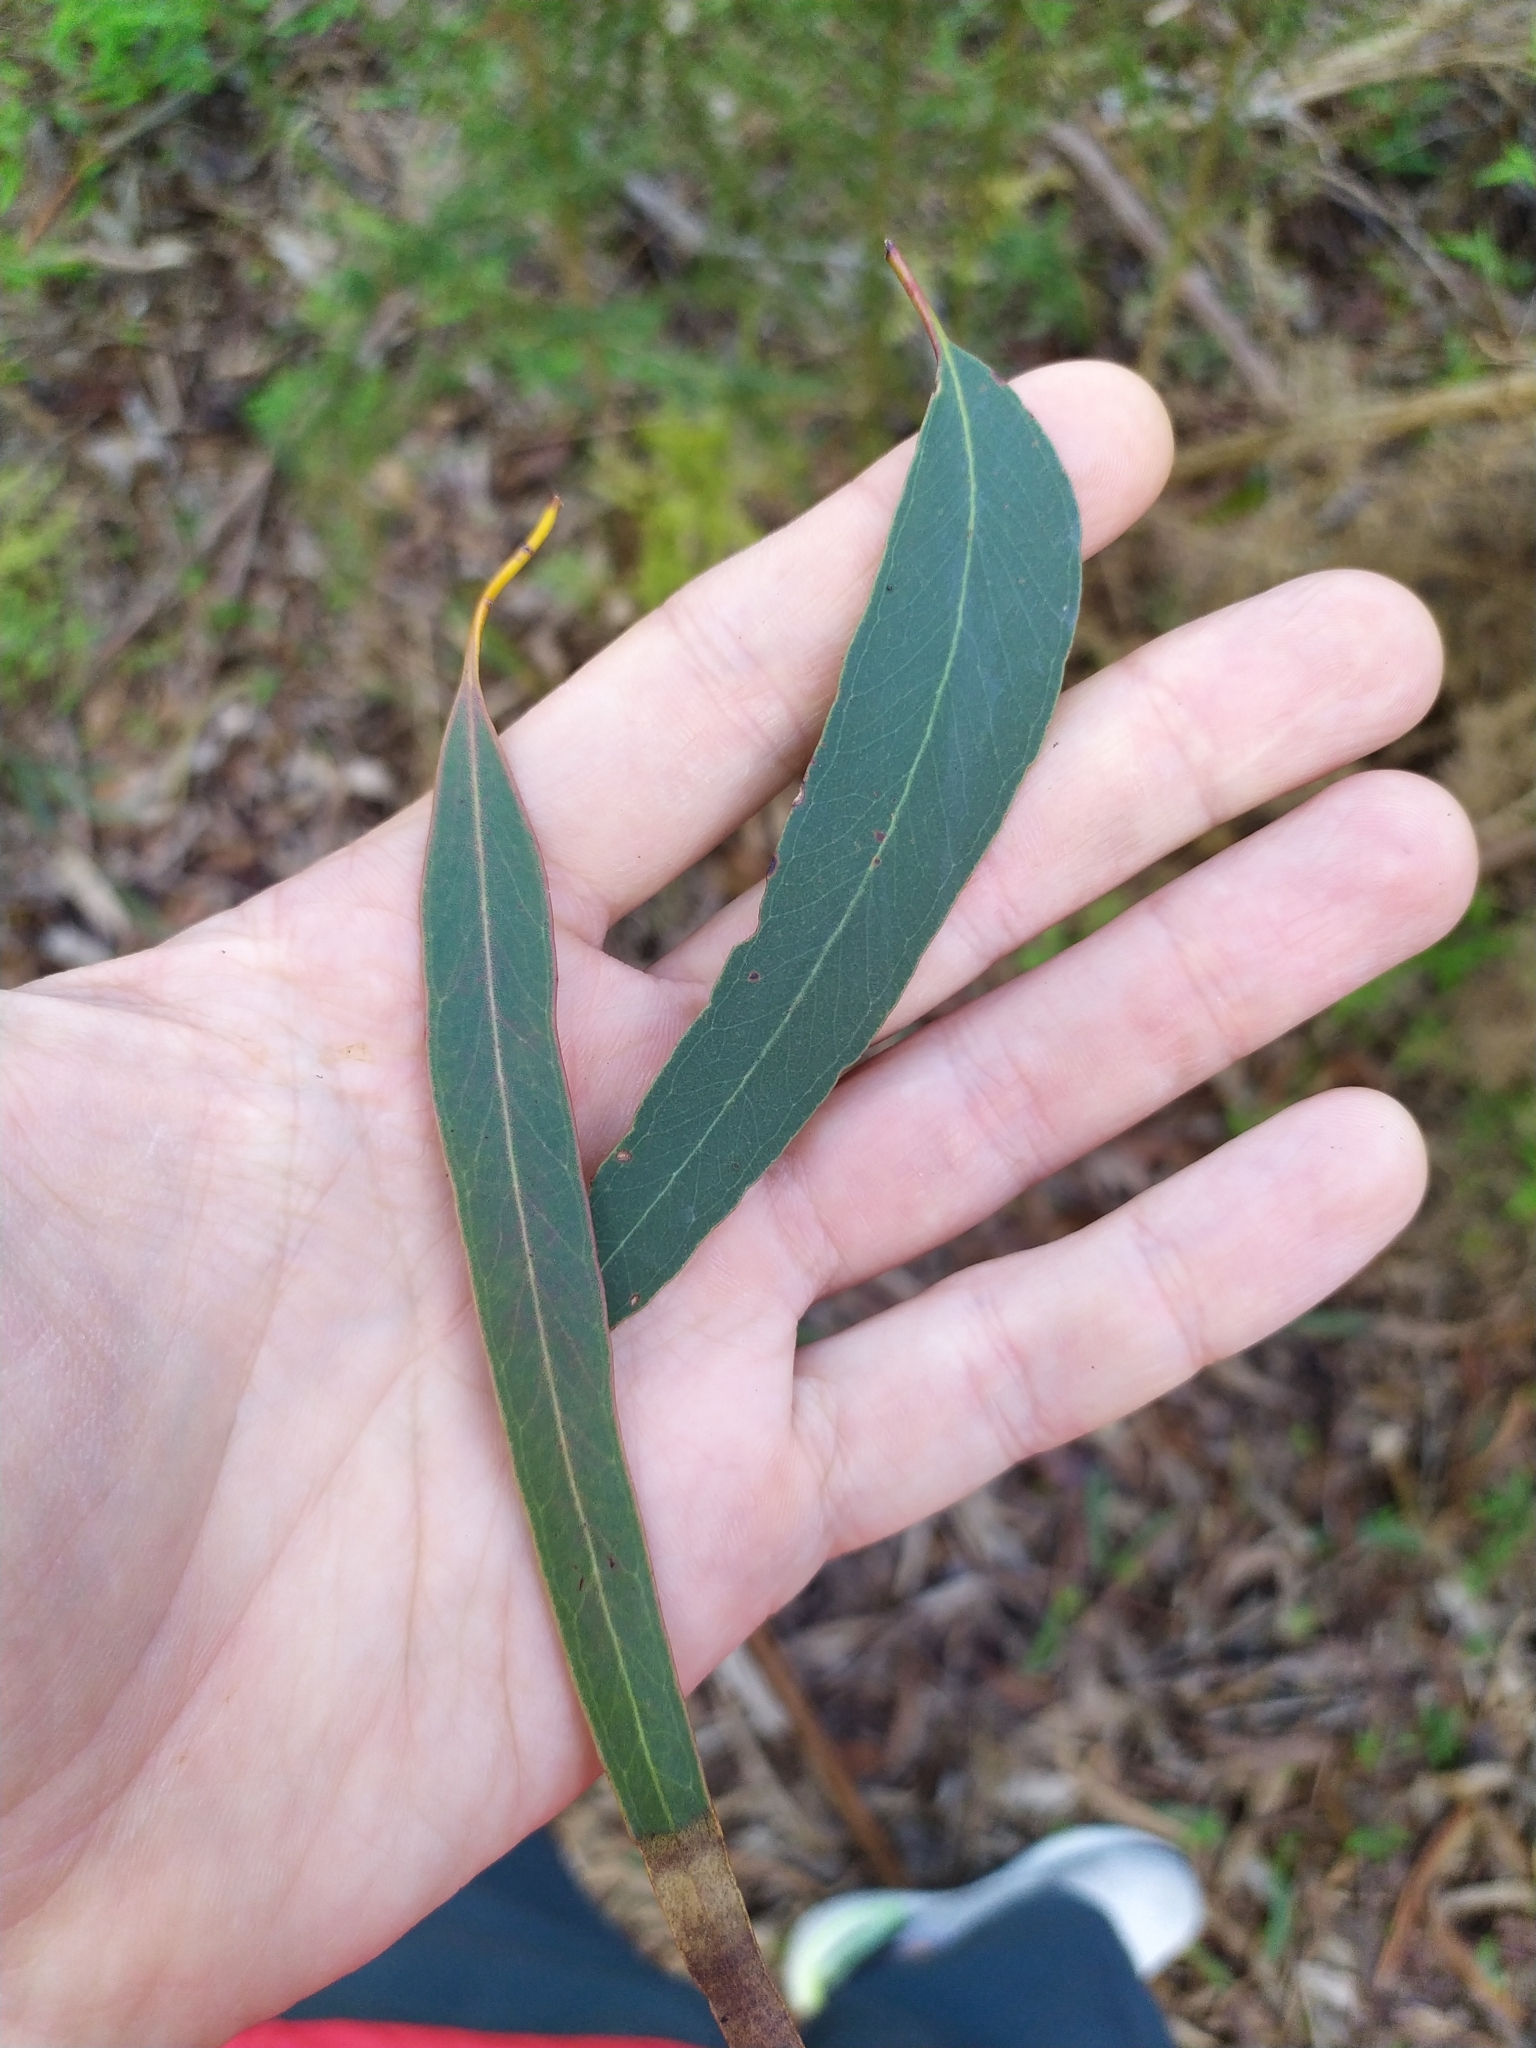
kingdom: Plantae
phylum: Tracheophyta
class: Magnoliopsida
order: Myrtales
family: Myrtaceae
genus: Eucalyptus
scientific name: Eucalyptus bosistoana
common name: Bosisto's-box
